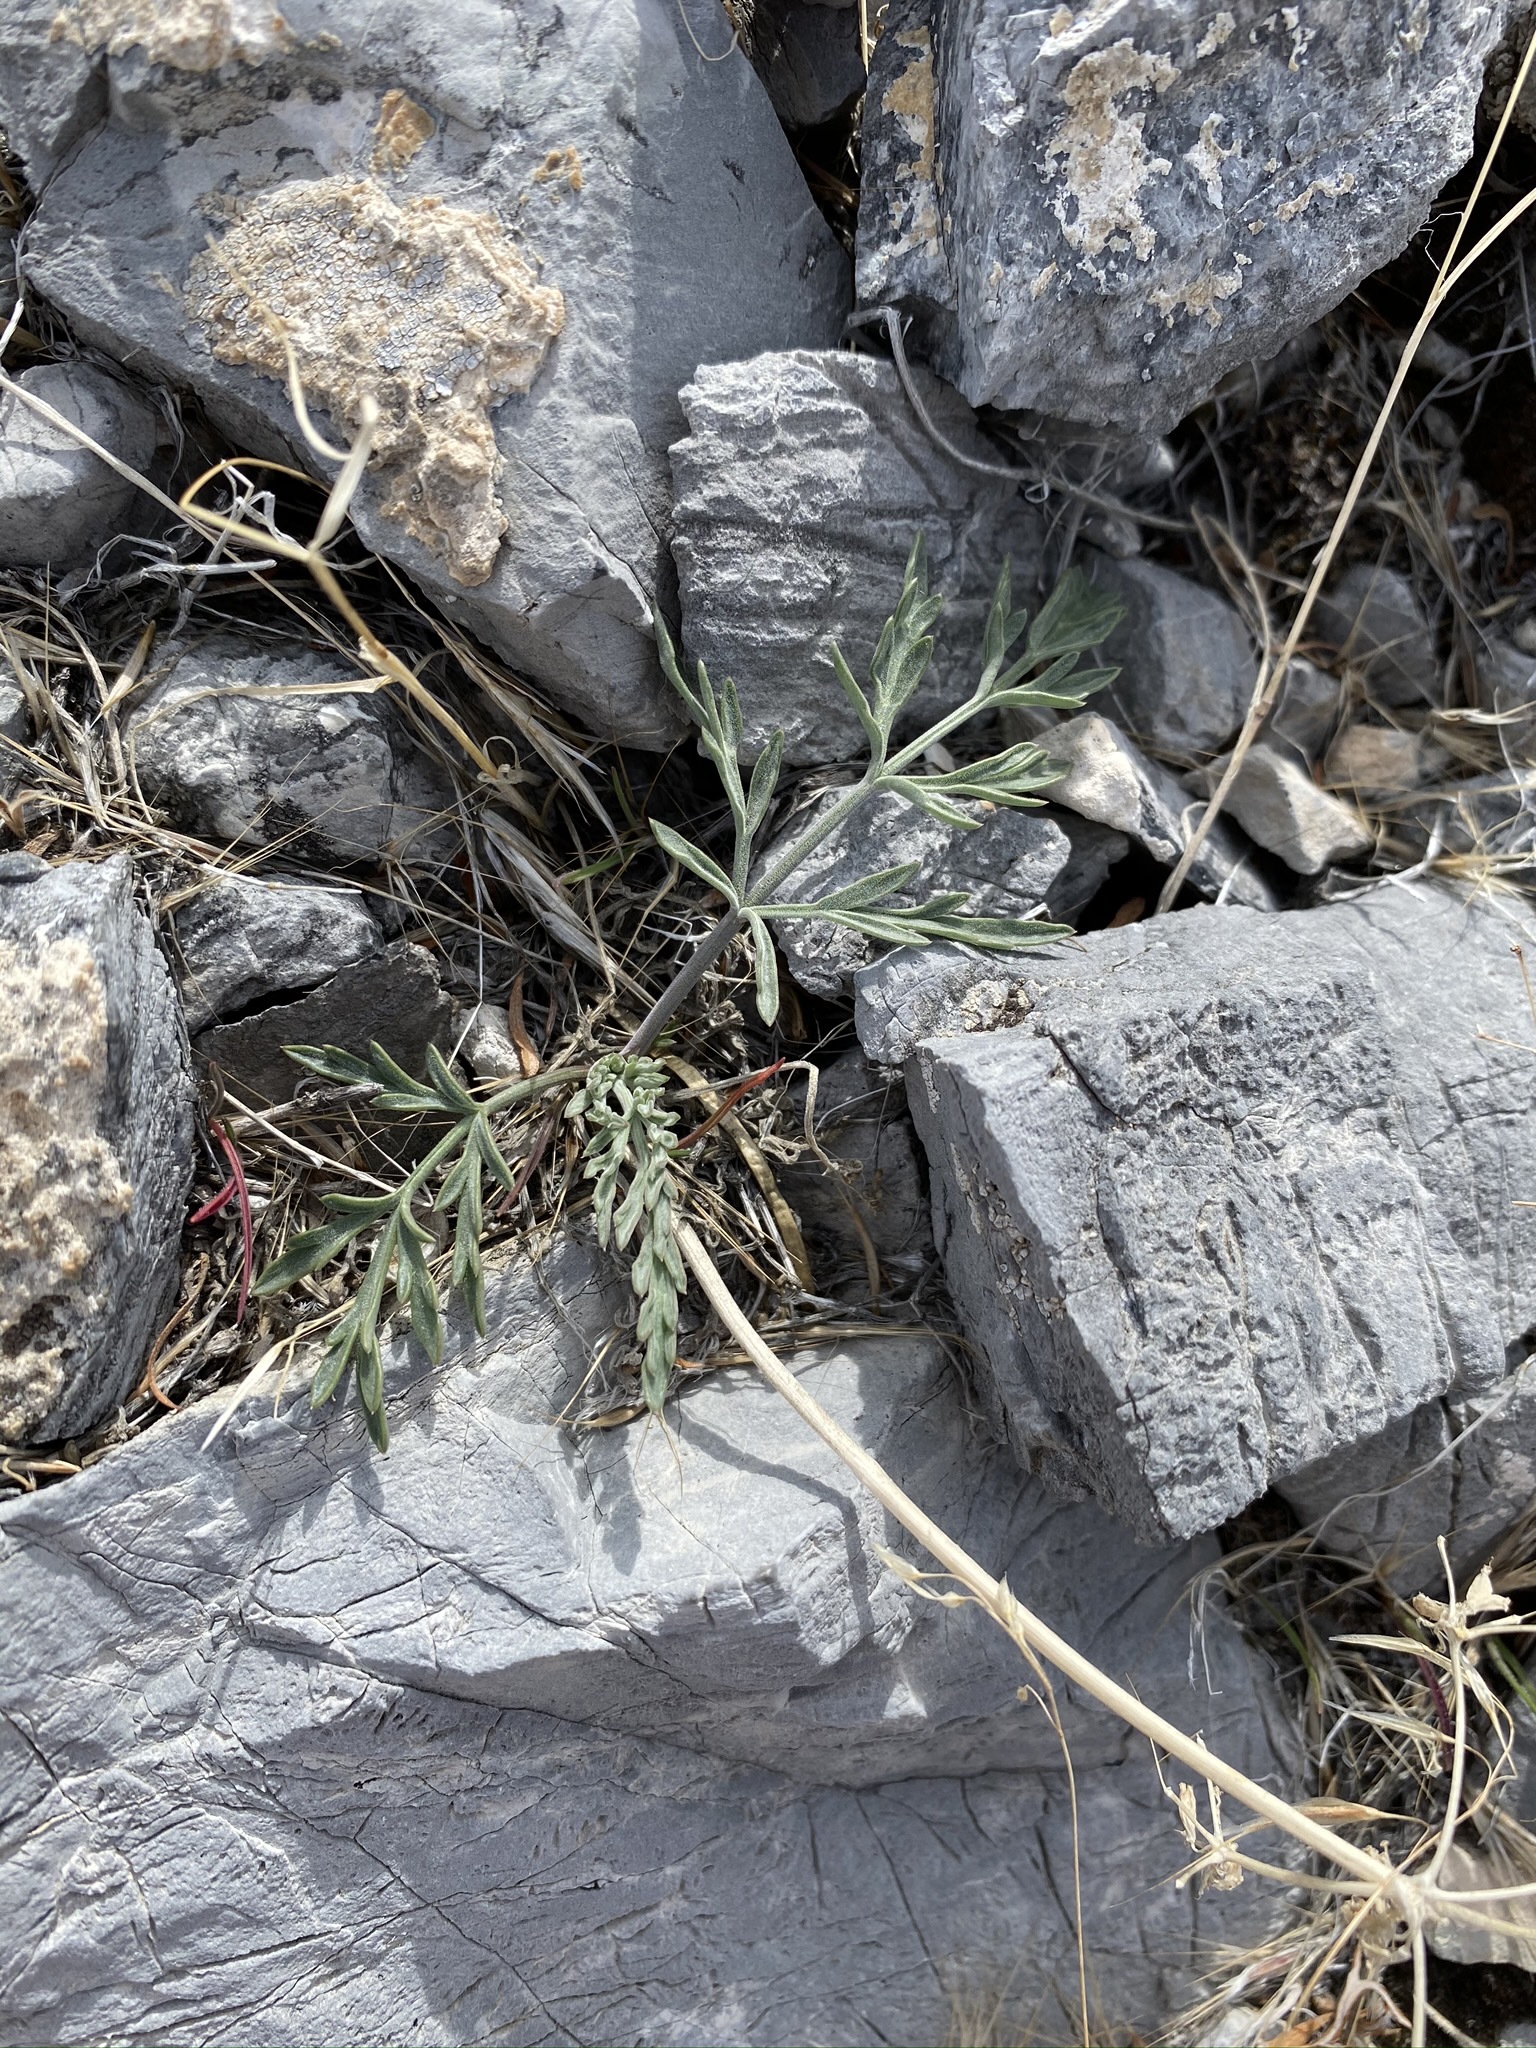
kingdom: Plantae
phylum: Tracheophyta
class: Magnoliopsida
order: Apiales
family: Apiaceae
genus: Lomatium
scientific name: Lomatium nevadense
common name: Nevada lomatium
